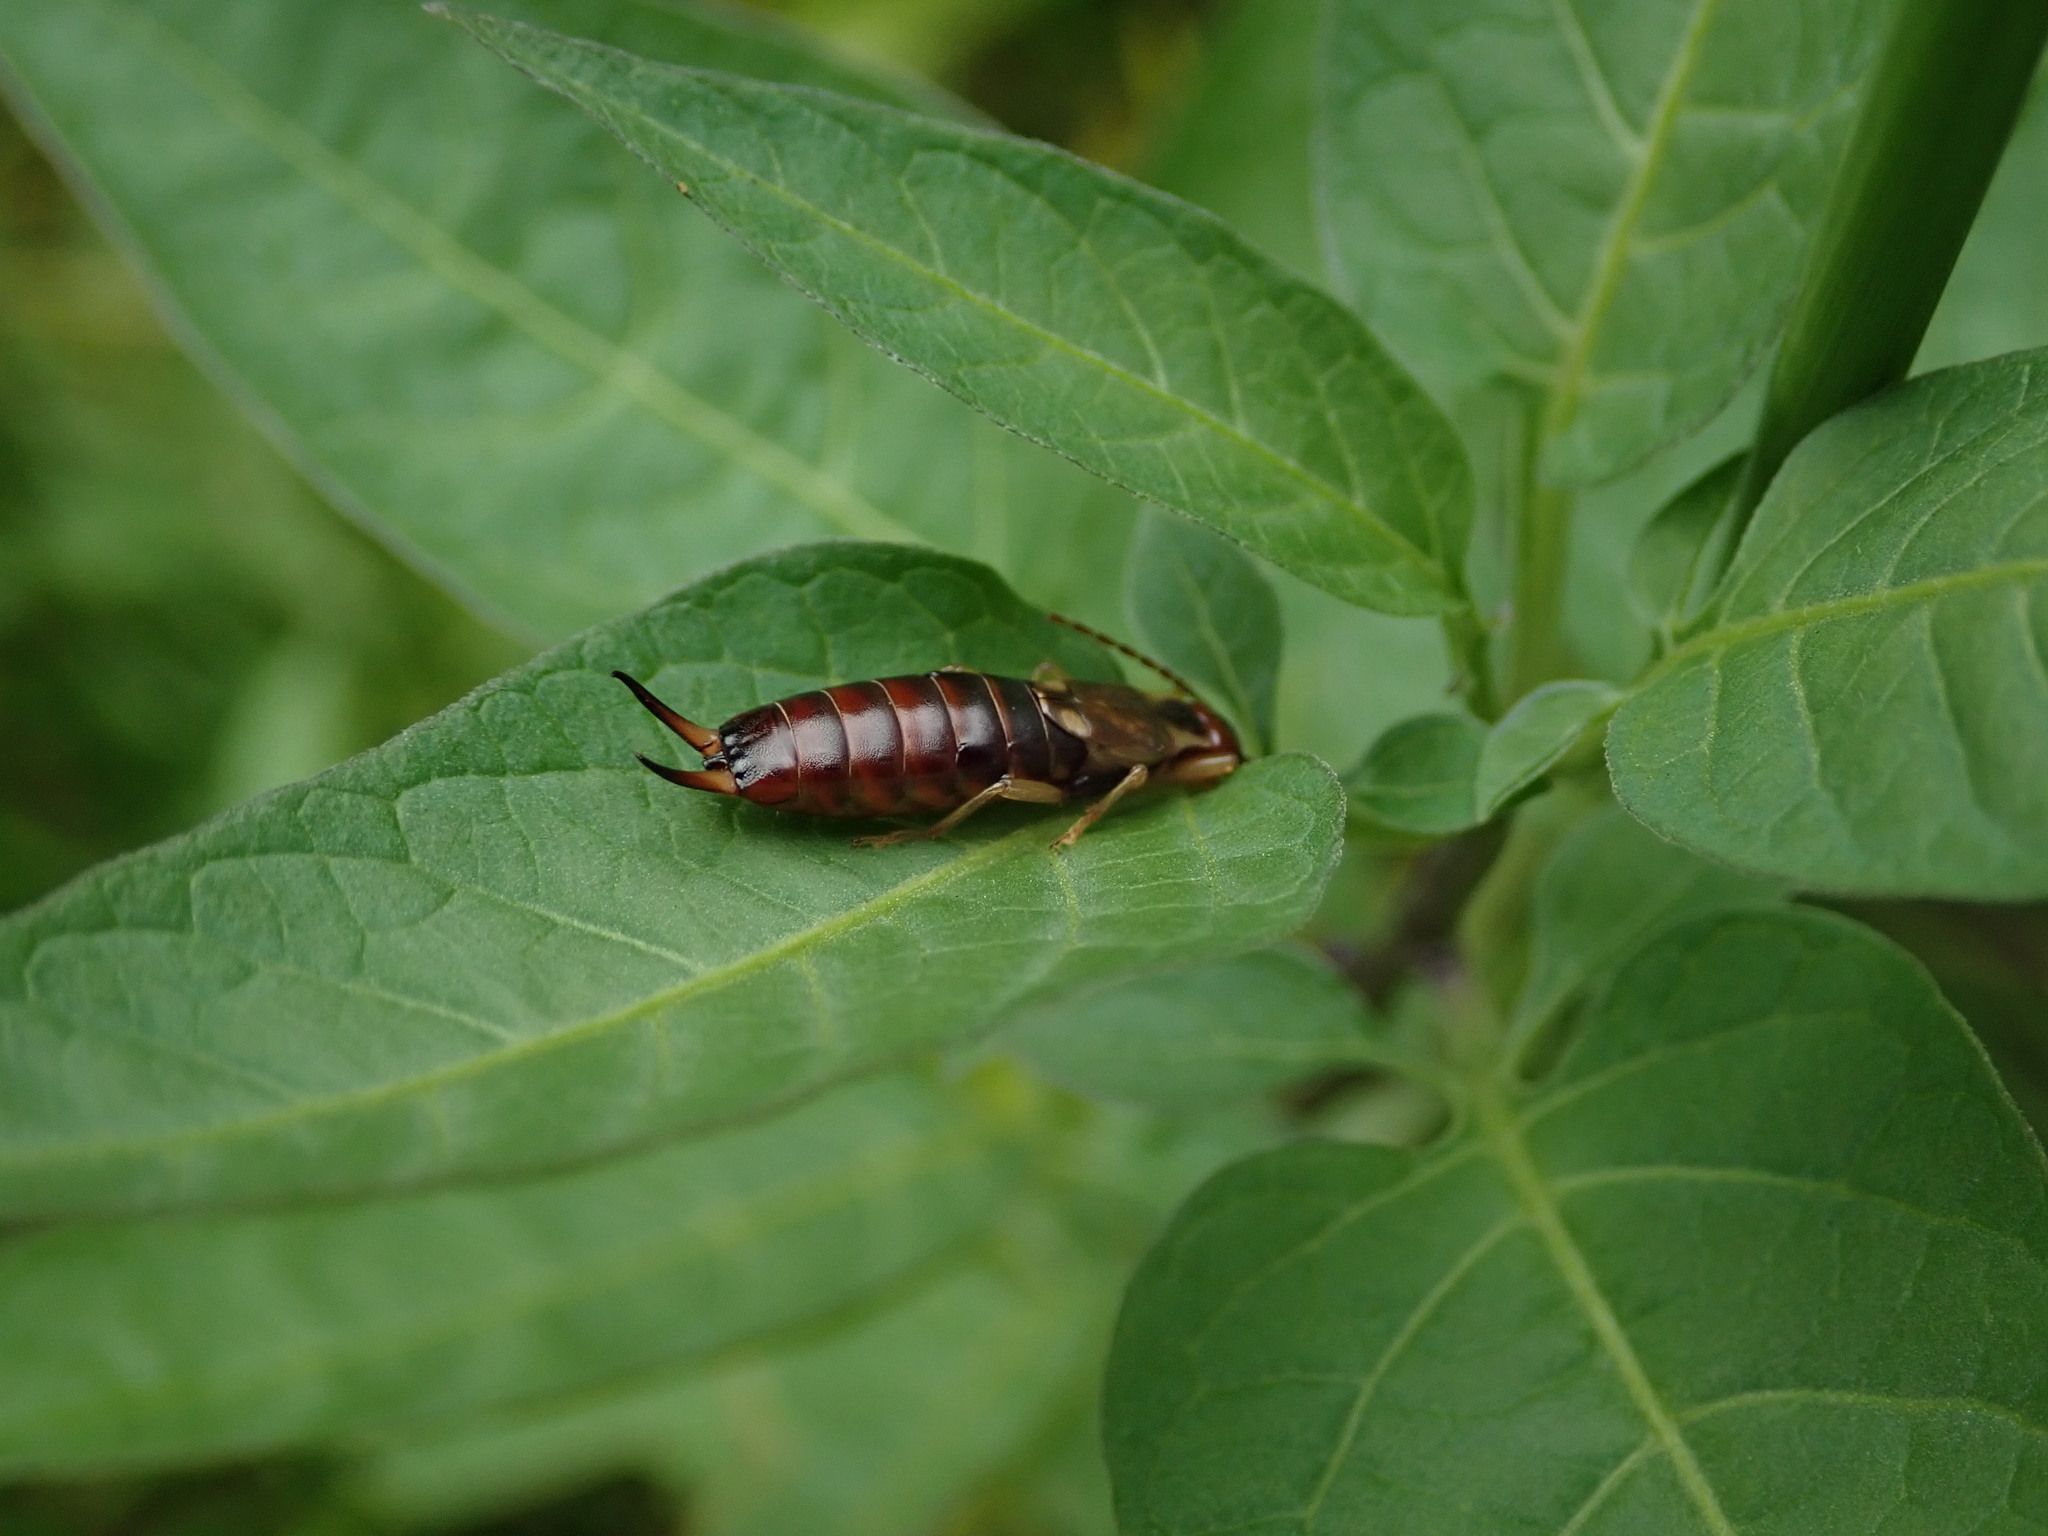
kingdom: Animalia
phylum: Arthropoda
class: Insecta
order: Dermaptera
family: Forficulidae
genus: Forficula
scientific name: Forficula
